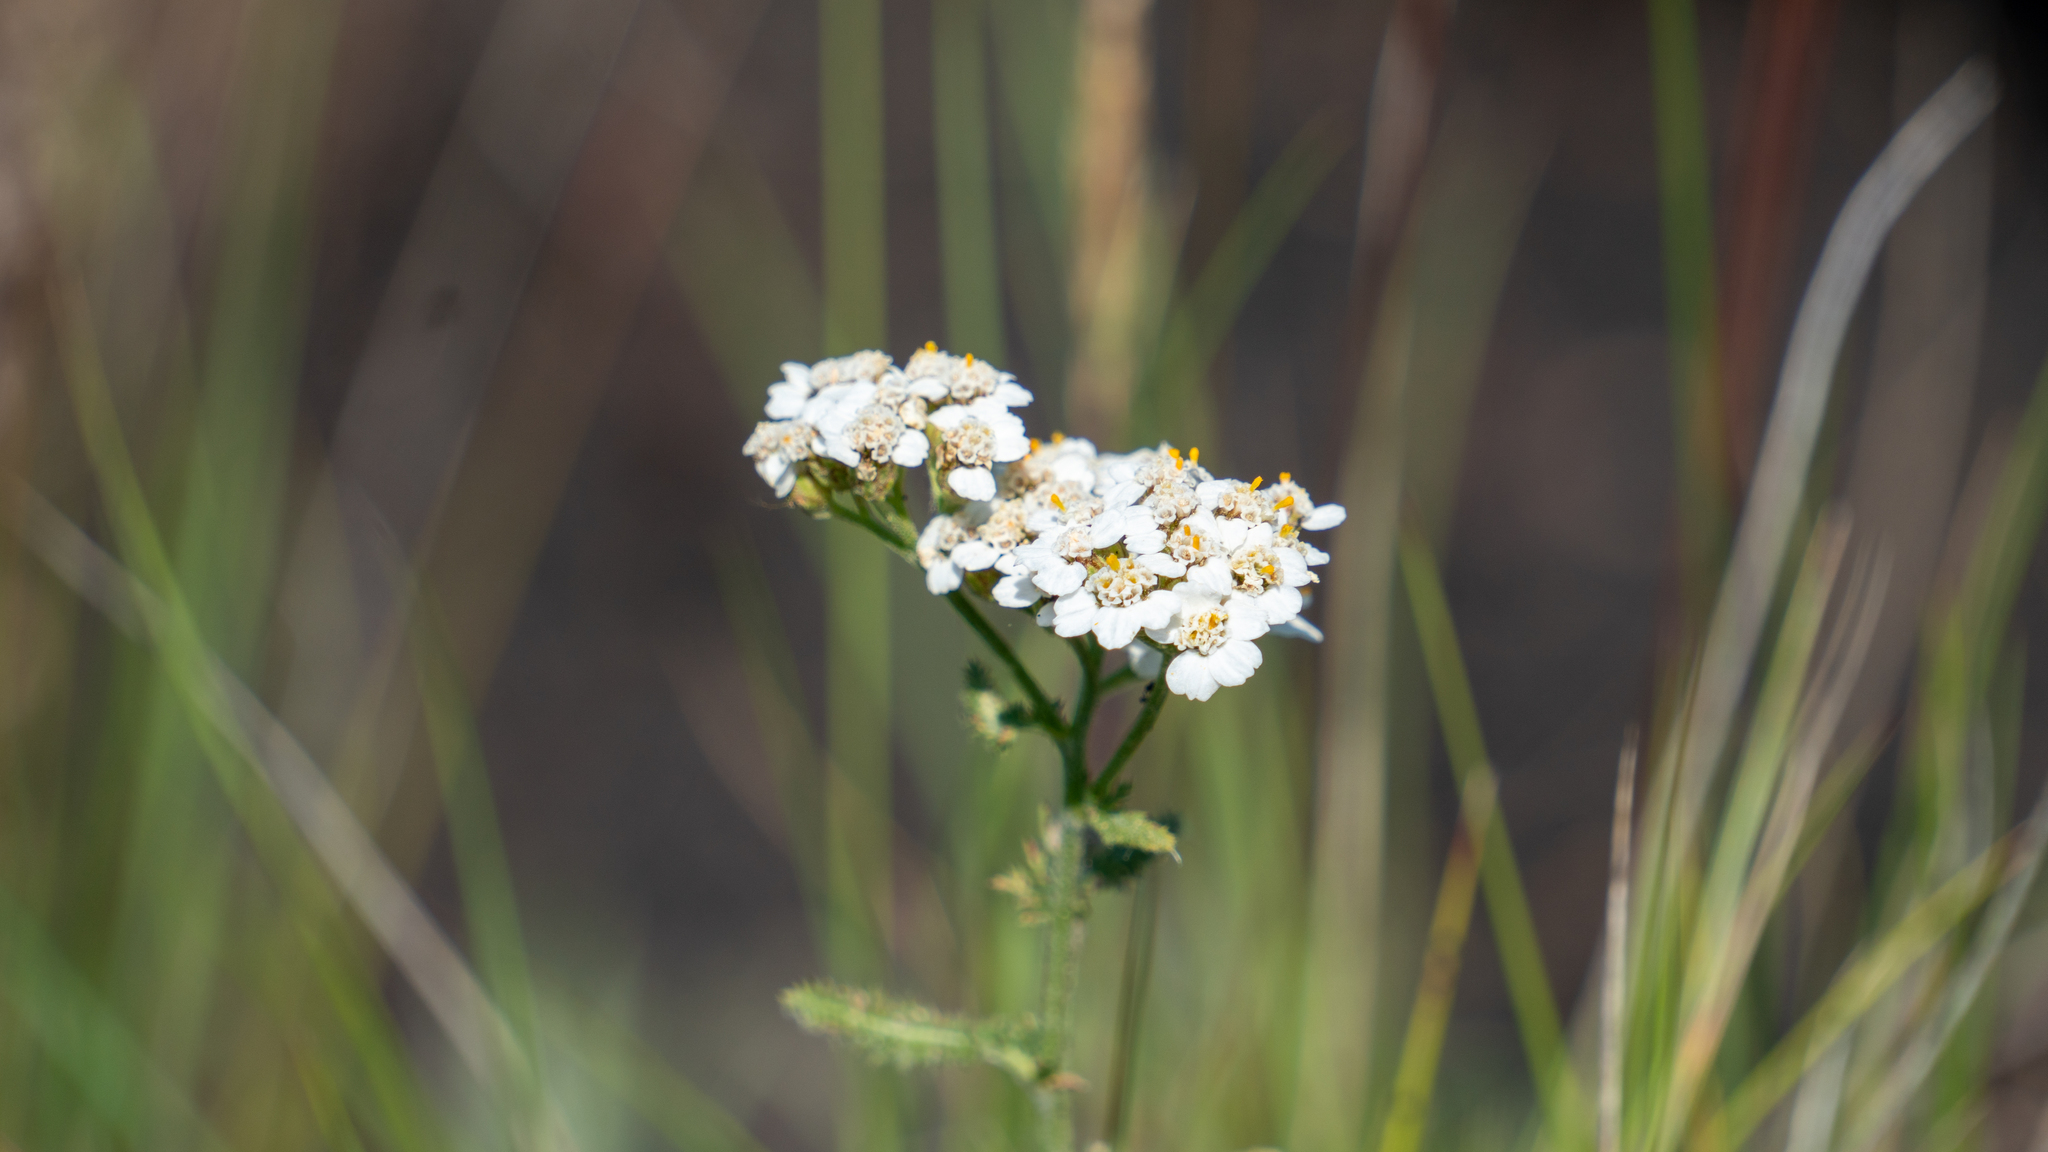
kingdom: Plantae
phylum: Tracheophyta
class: Magnoliopsida
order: Asterales
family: Asteraceae
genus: Achillea
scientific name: Achillea millefolium
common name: Yarrow
